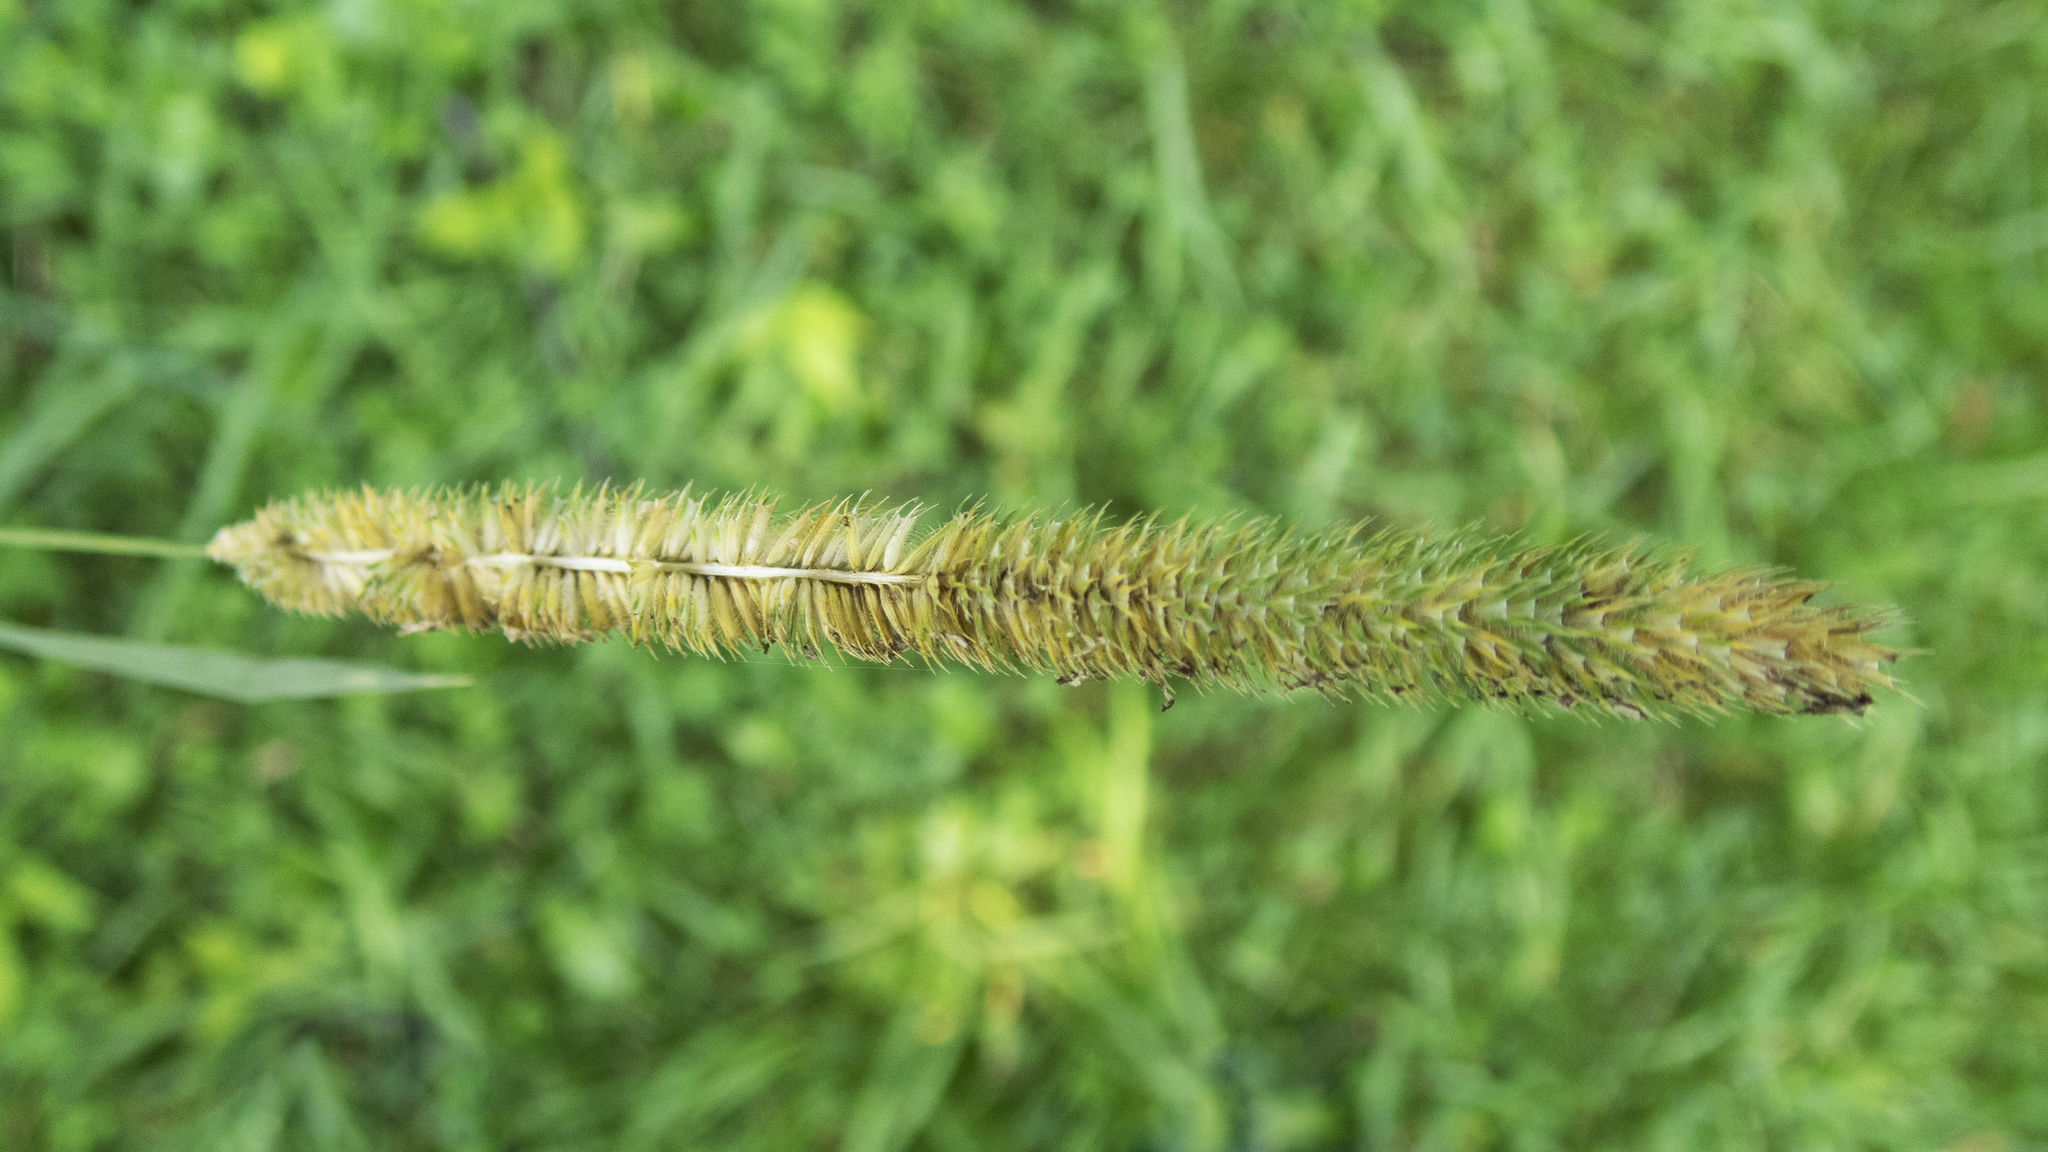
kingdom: Plantae
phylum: Tracheophyta
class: Liliopsida
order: Poales
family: Poaceae
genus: Phleum
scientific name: Phleum pratense
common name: Timothy grass
